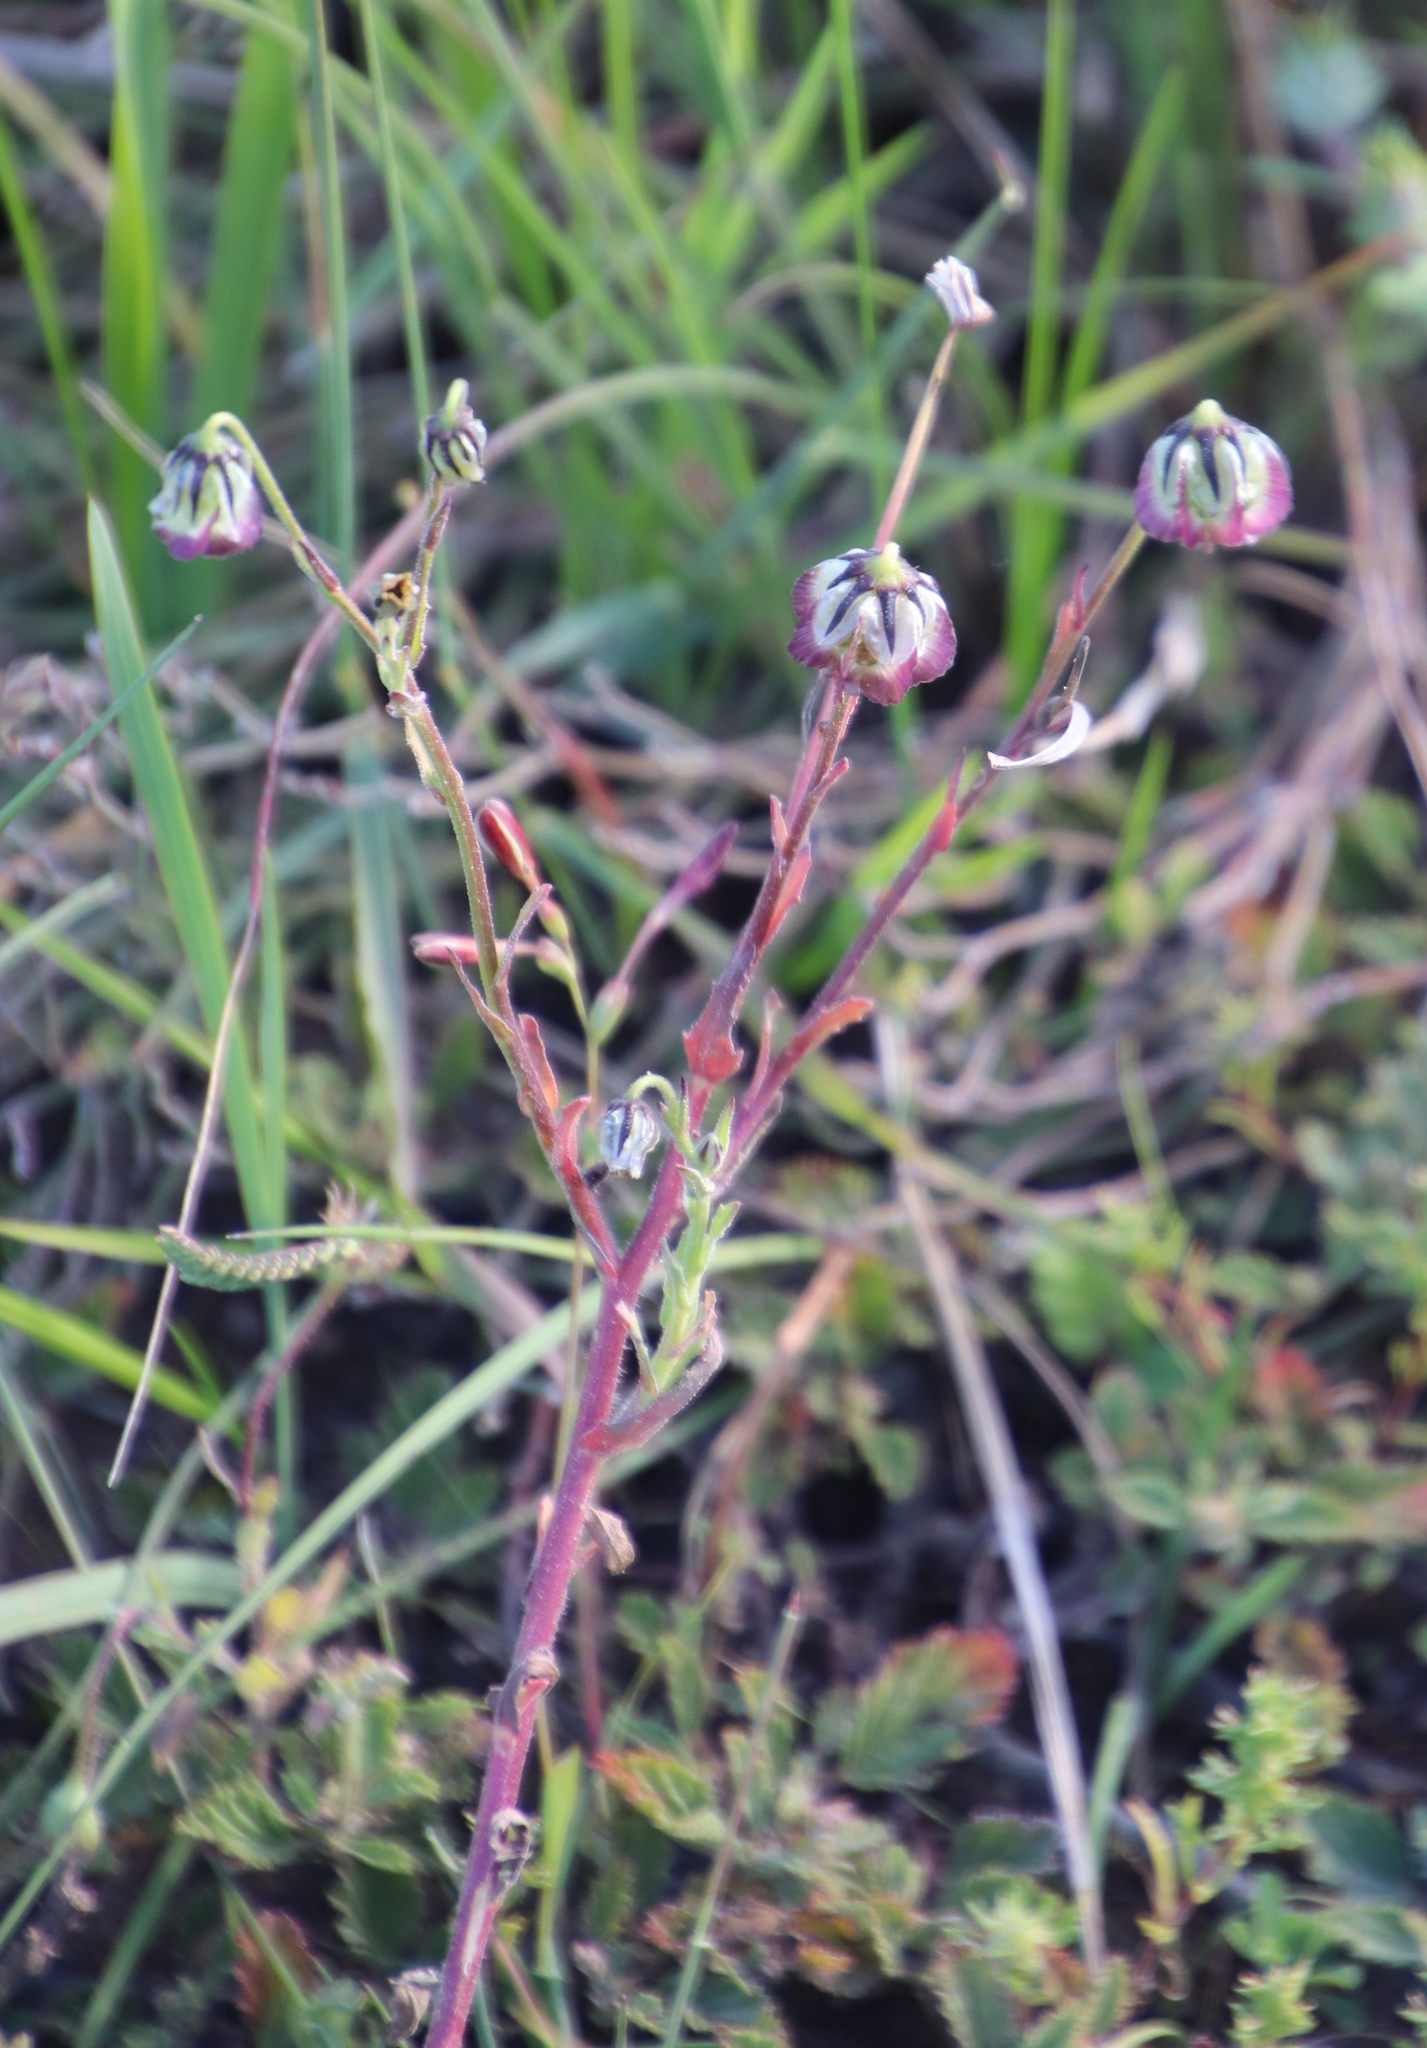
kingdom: Plantae
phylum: Tracheophyta
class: Magnoliopsida
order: Asterales
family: Asteraceae
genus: Osteospermum
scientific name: Osteospermum monstrosum
